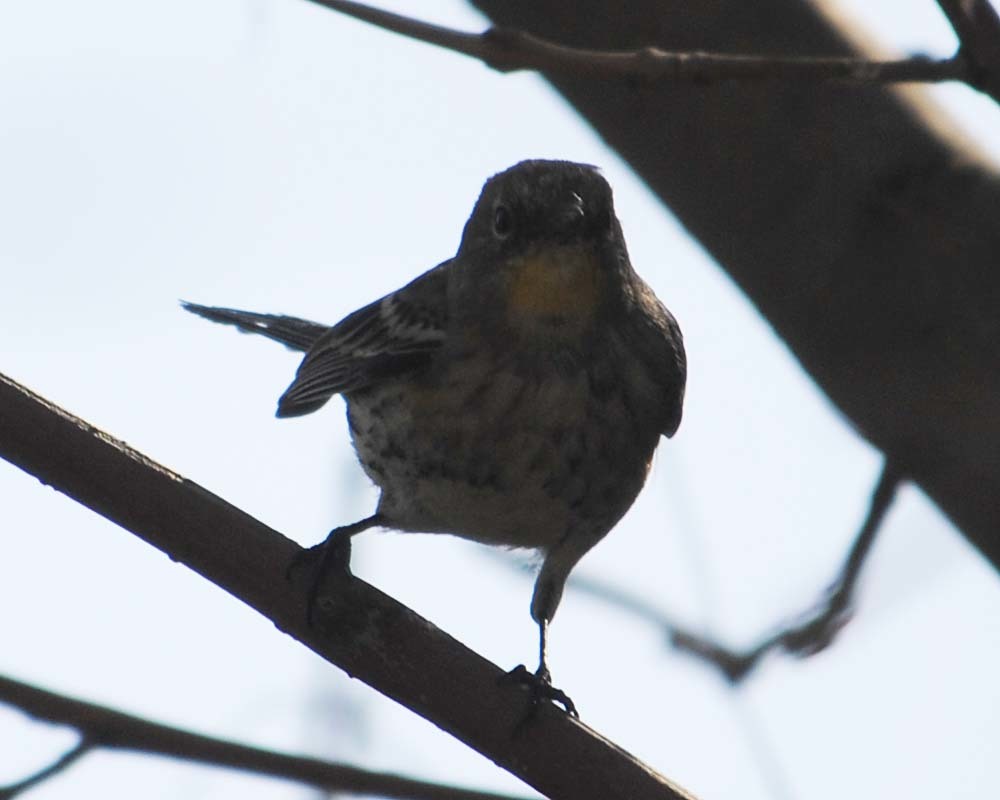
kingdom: Animalia
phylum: Chordata
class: Aves
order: Passeriformes
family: Parulidae
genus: Setophaga
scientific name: Setophaga auduboni
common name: Audubon's warbler
